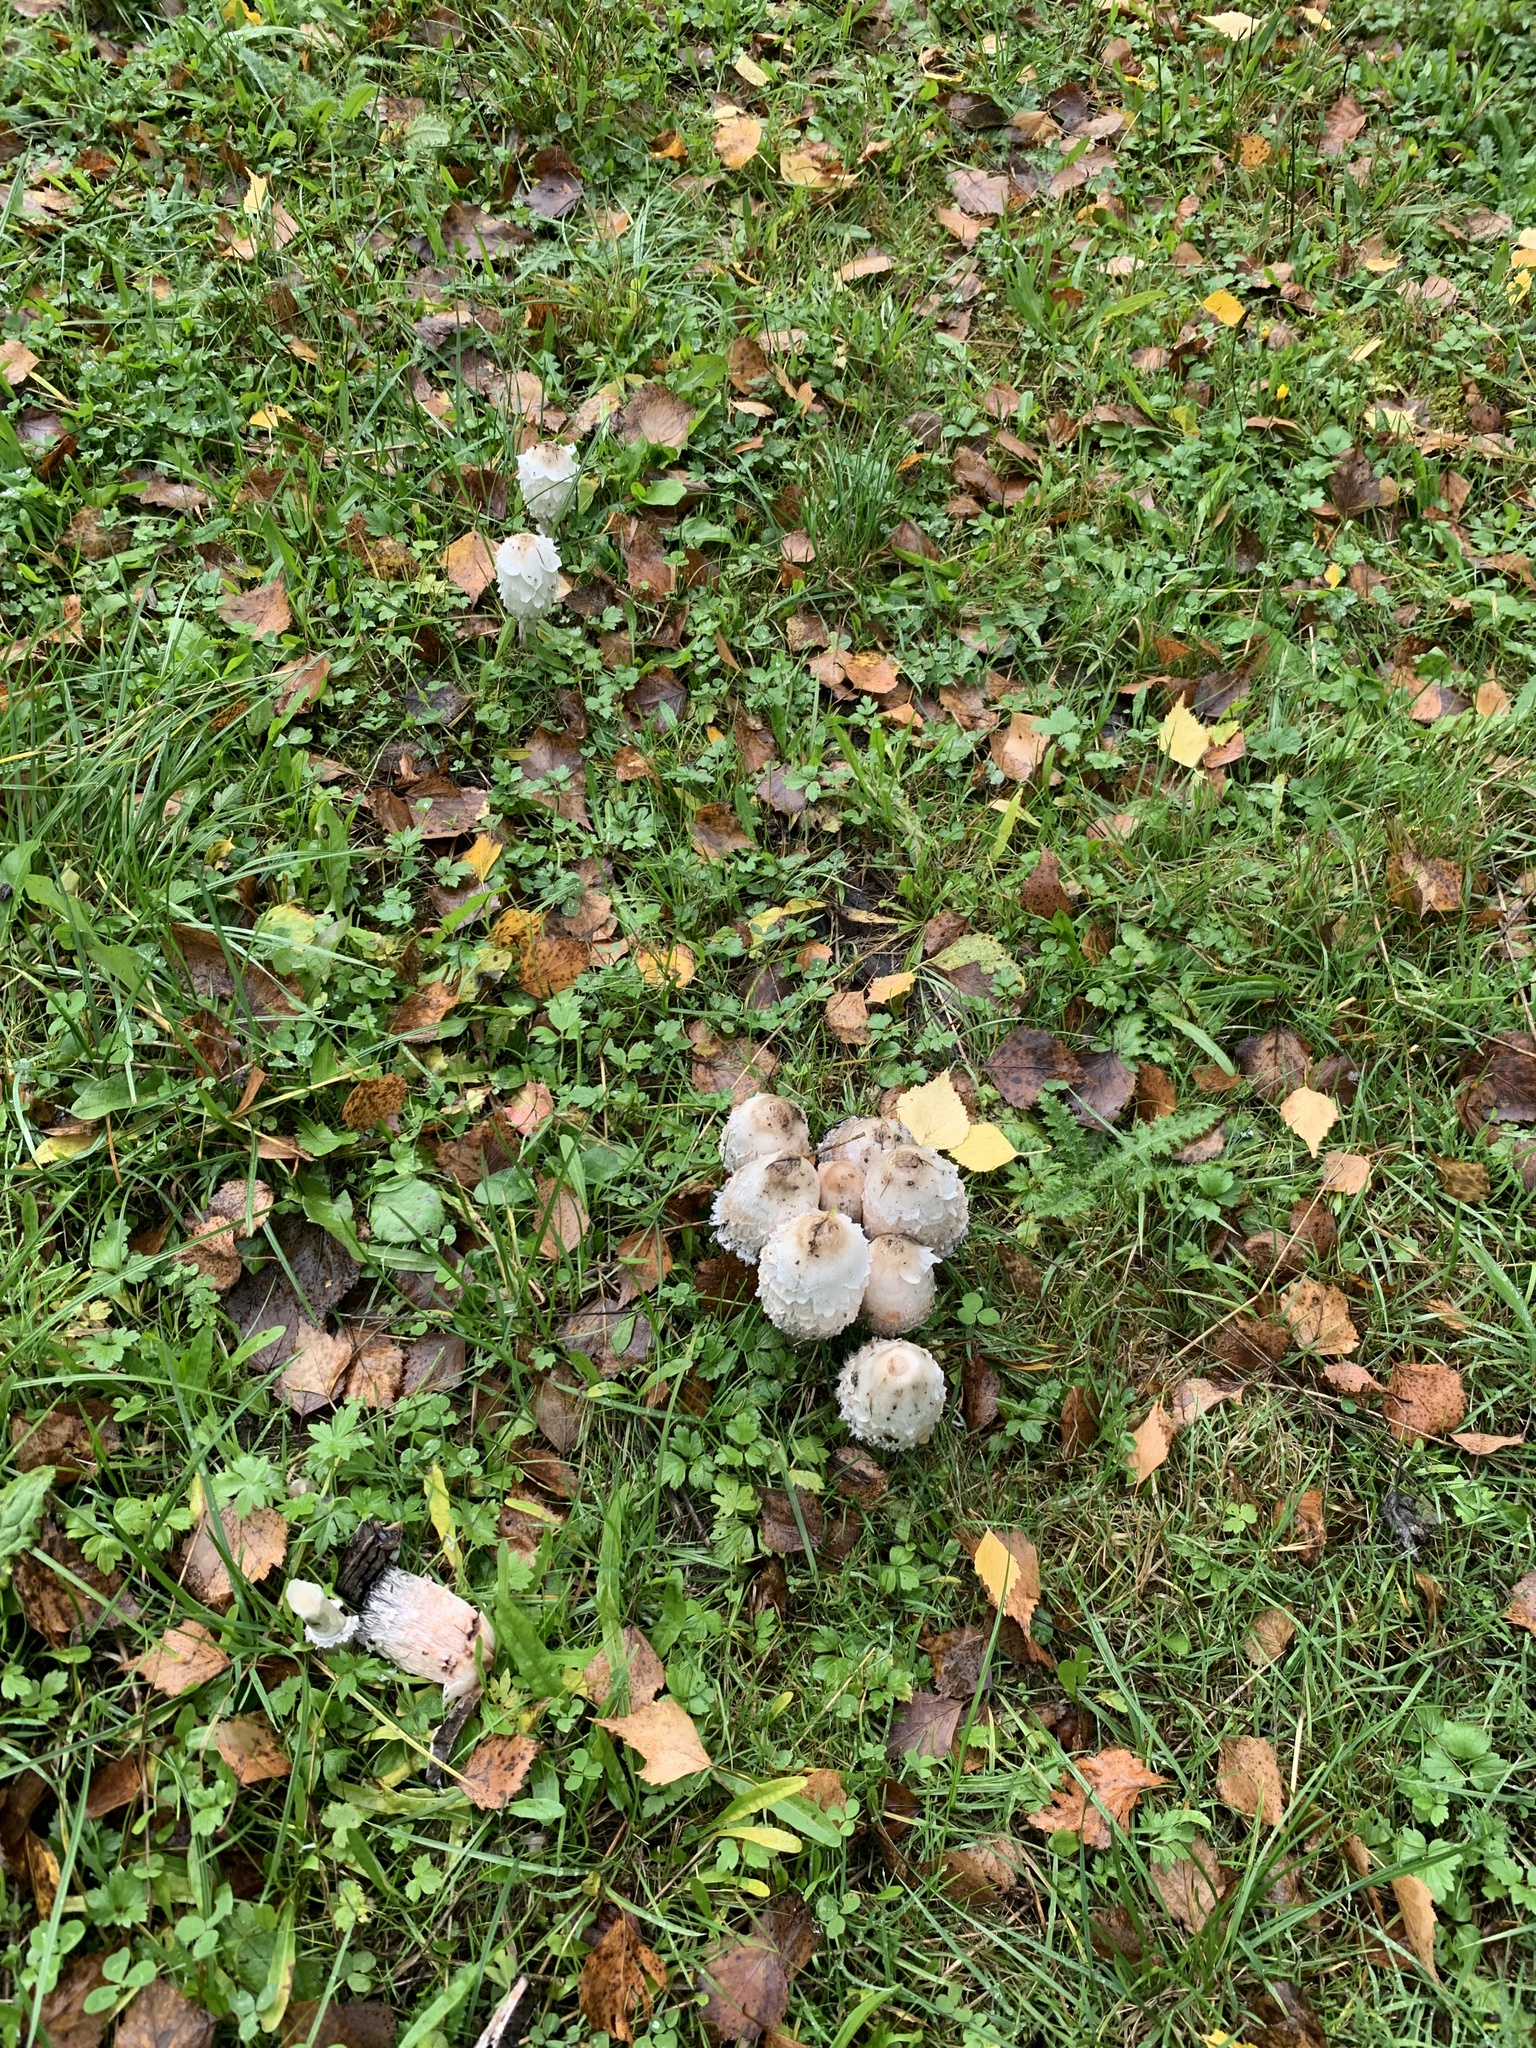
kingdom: Fungi
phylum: Basidiomycota
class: Agaricomycetes
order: Agaricales
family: Agaricaceae
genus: Coprinus
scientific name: Coprinus comatus
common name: Lawyer's wig
